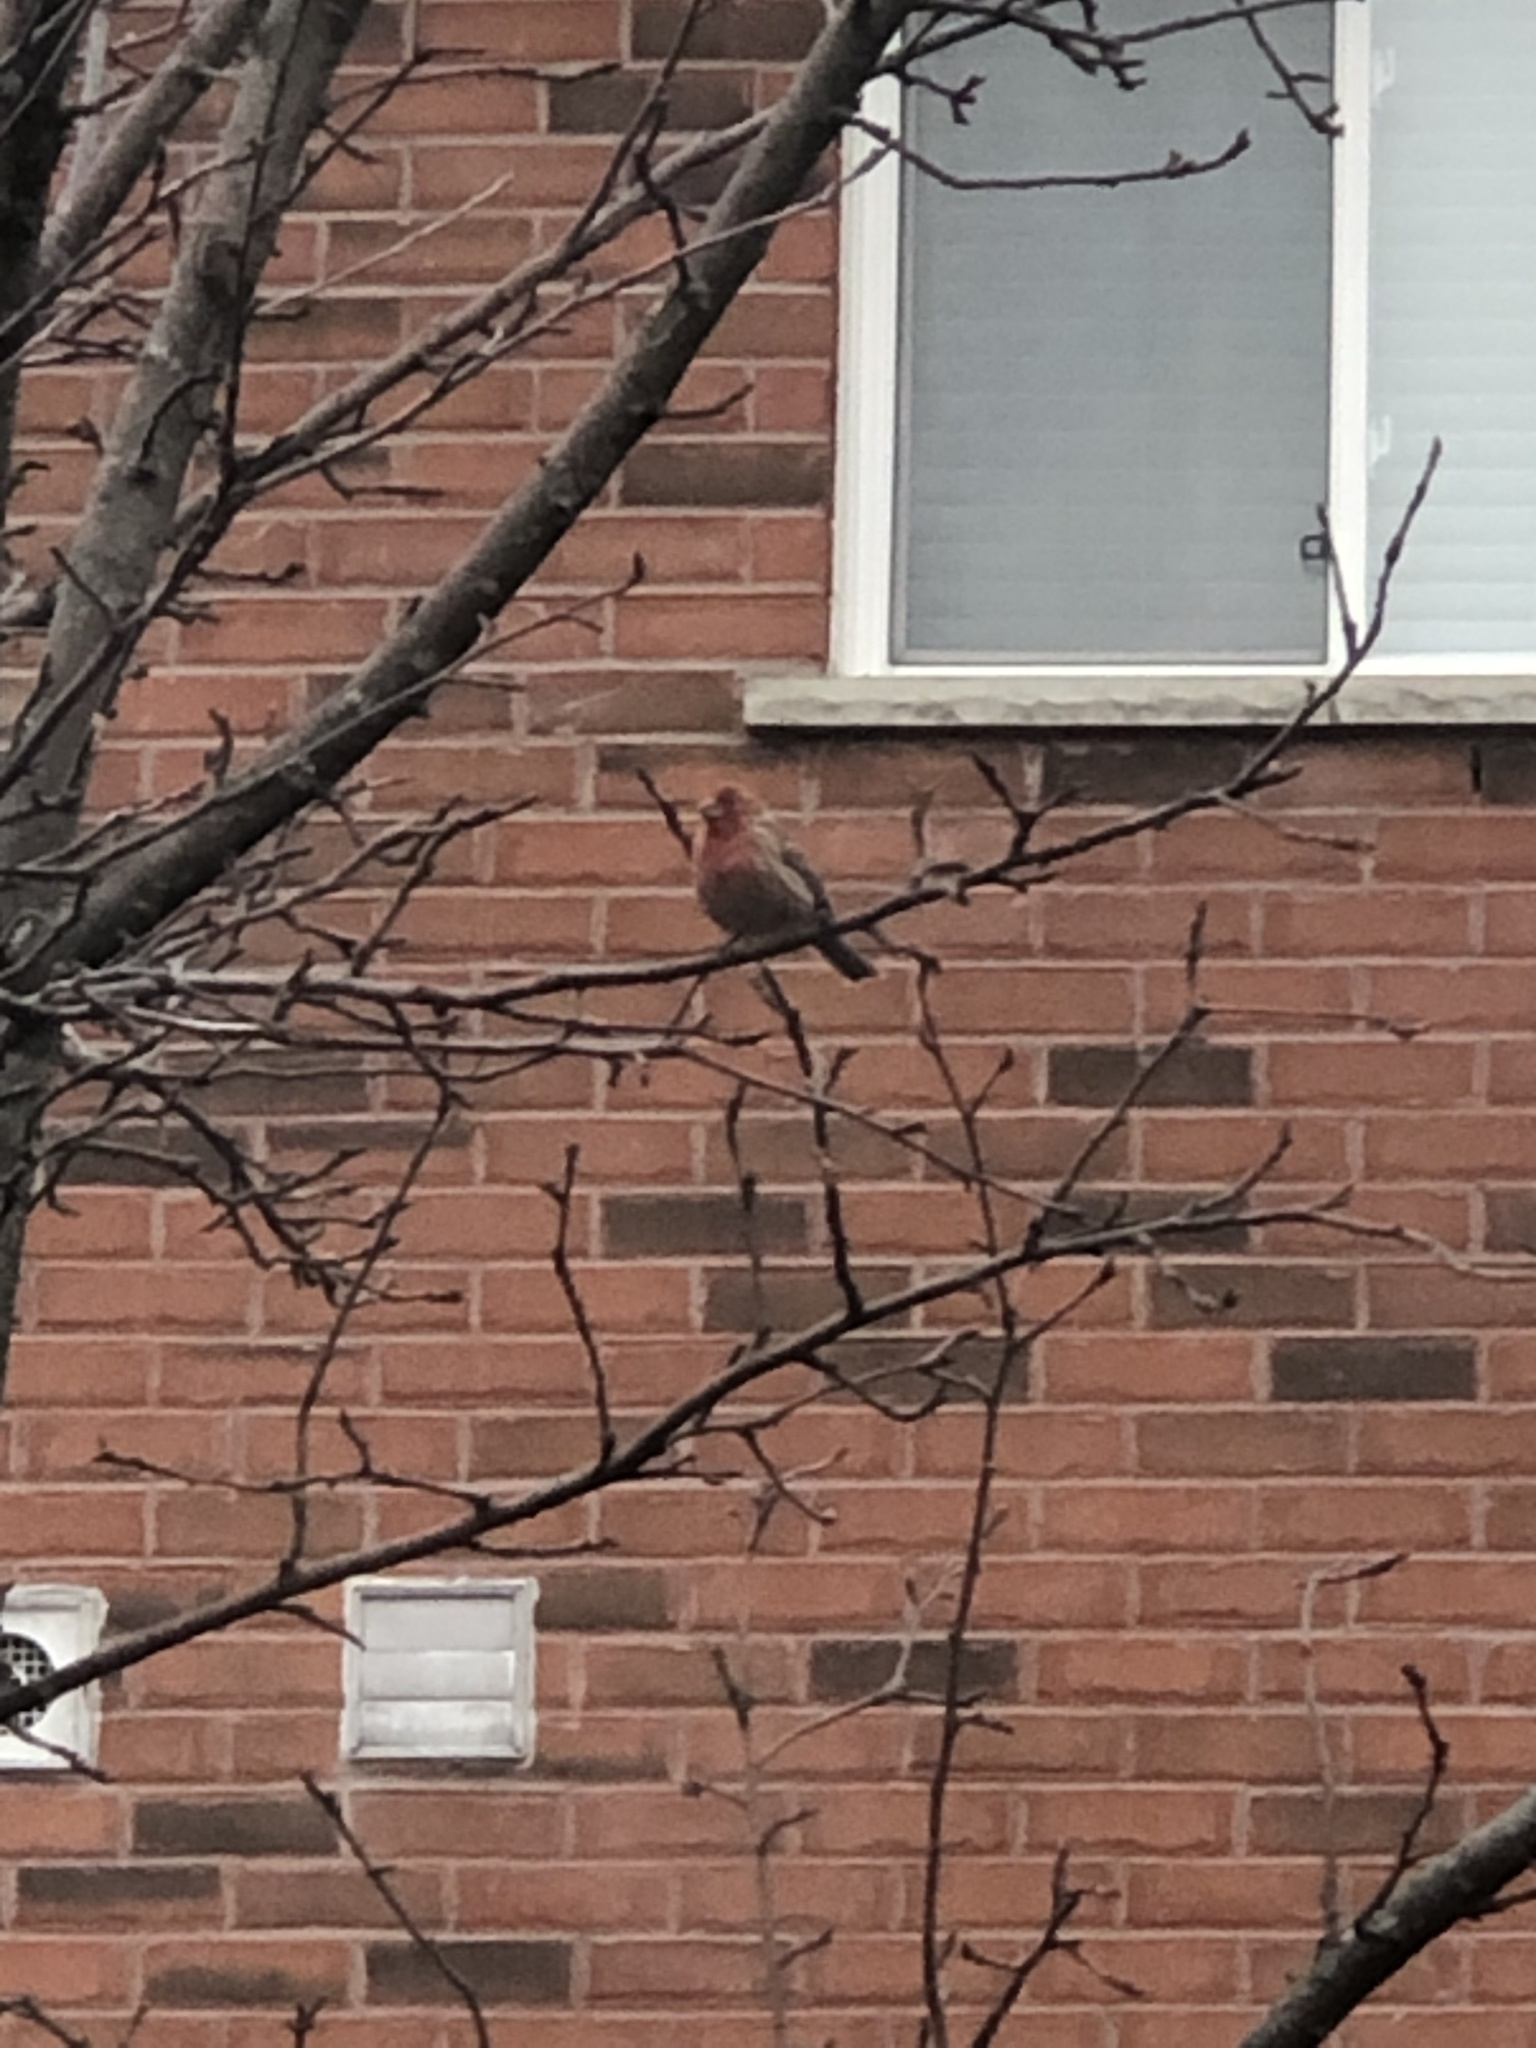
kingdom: Animalia
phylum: Chordata
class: Aves
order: Passeriformes
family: Fringillidae
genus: Haemorhous
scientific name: Haemorhous mexicanus
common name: House finch
